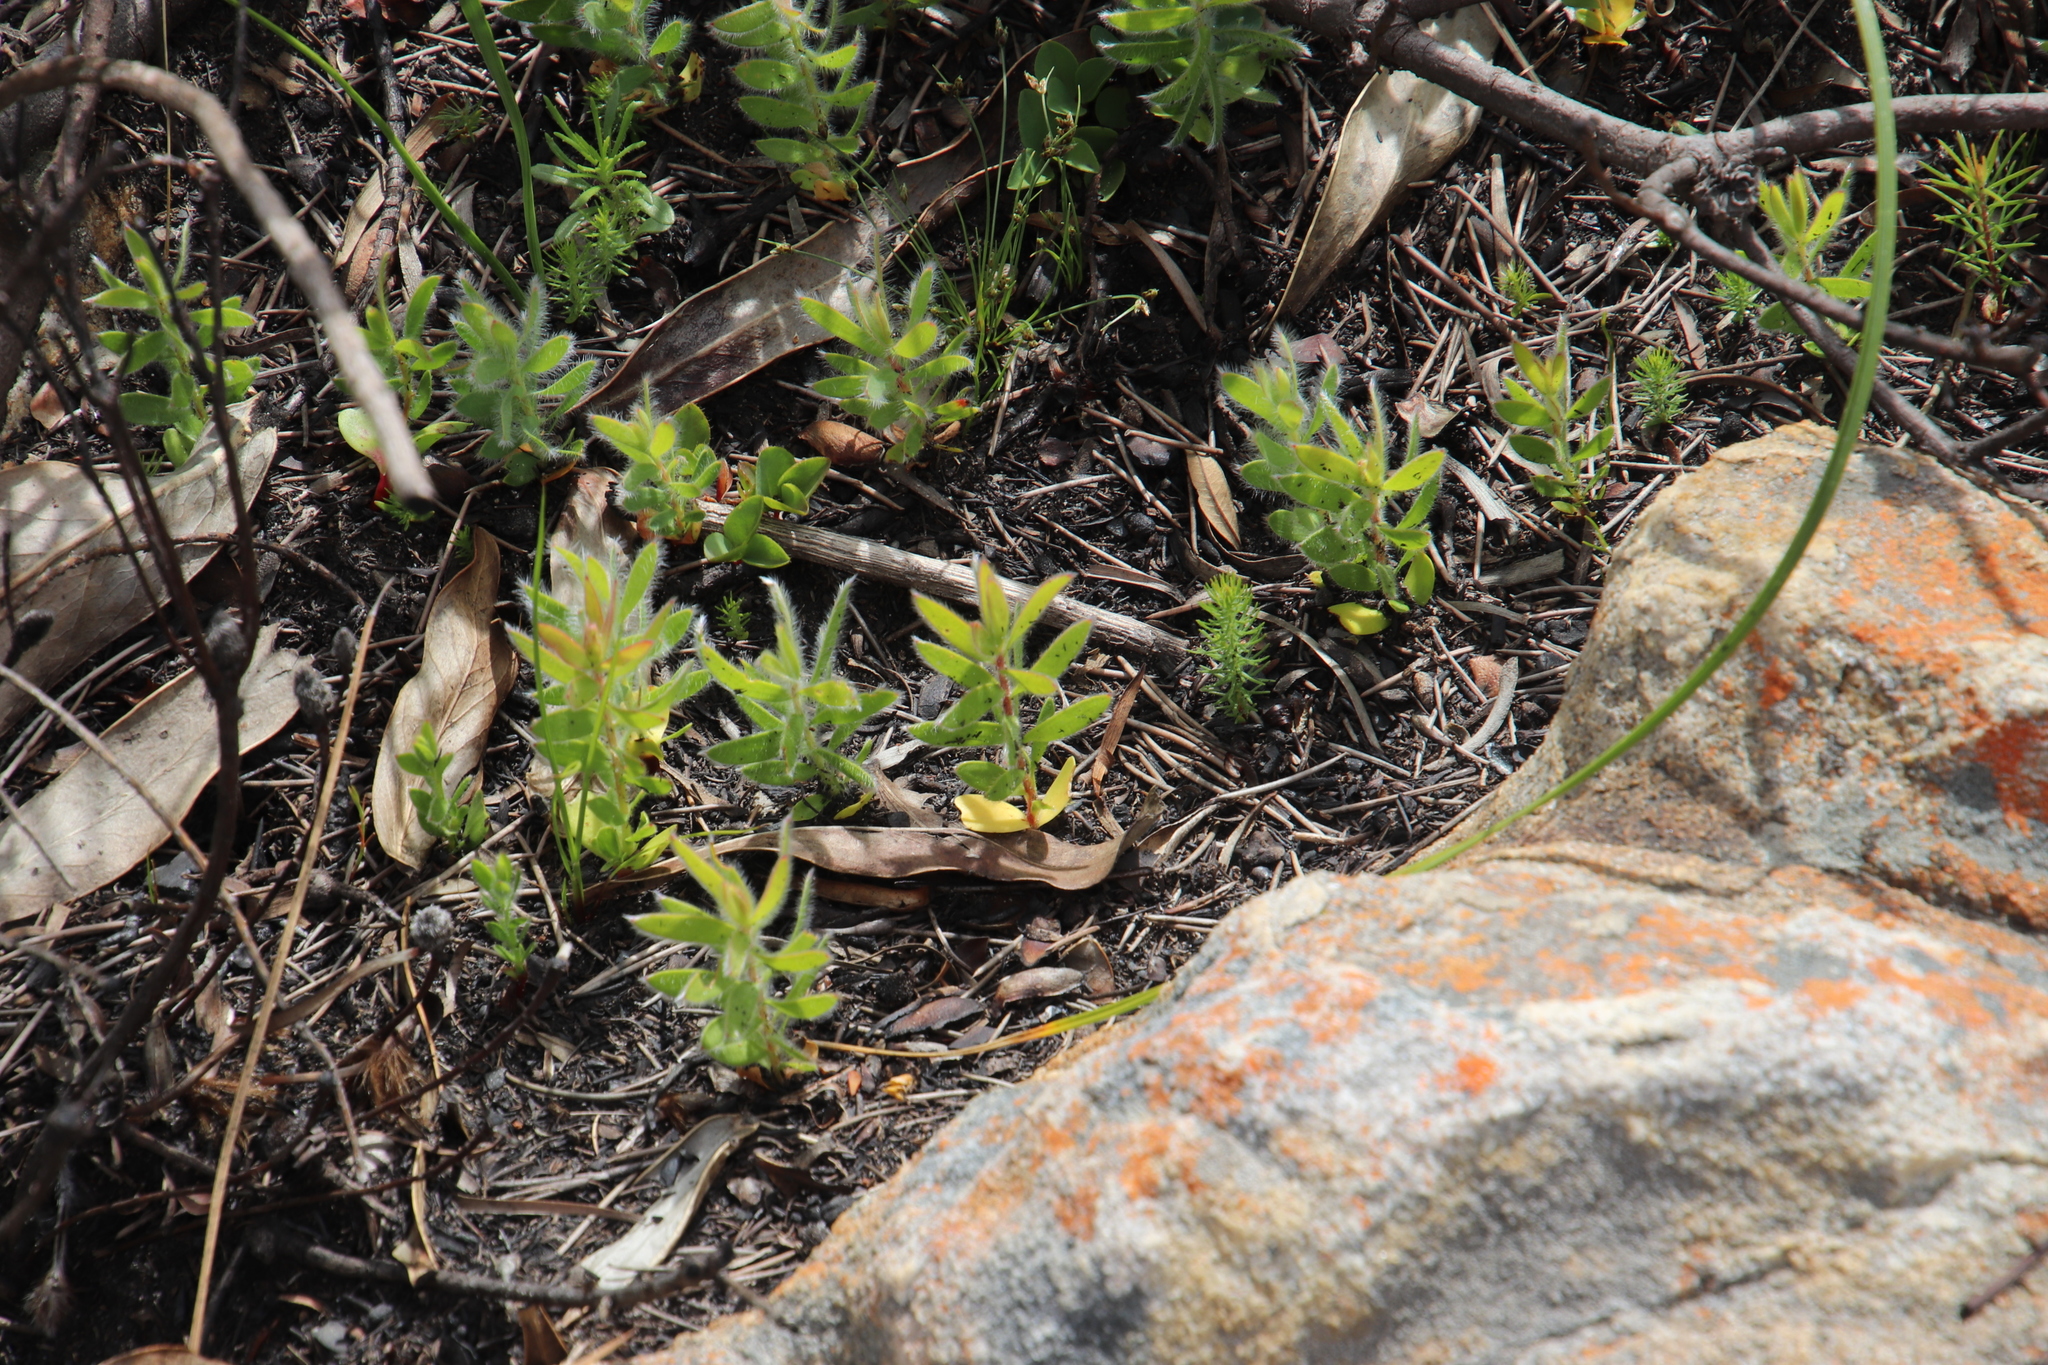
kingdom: Plantae
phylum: Tracheophyta
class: Magnoliopsida
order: Proteales
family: Proteaceae
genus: Leucadendron
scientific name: Leucadendron spissifolium
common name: Spear-leaf conebush
